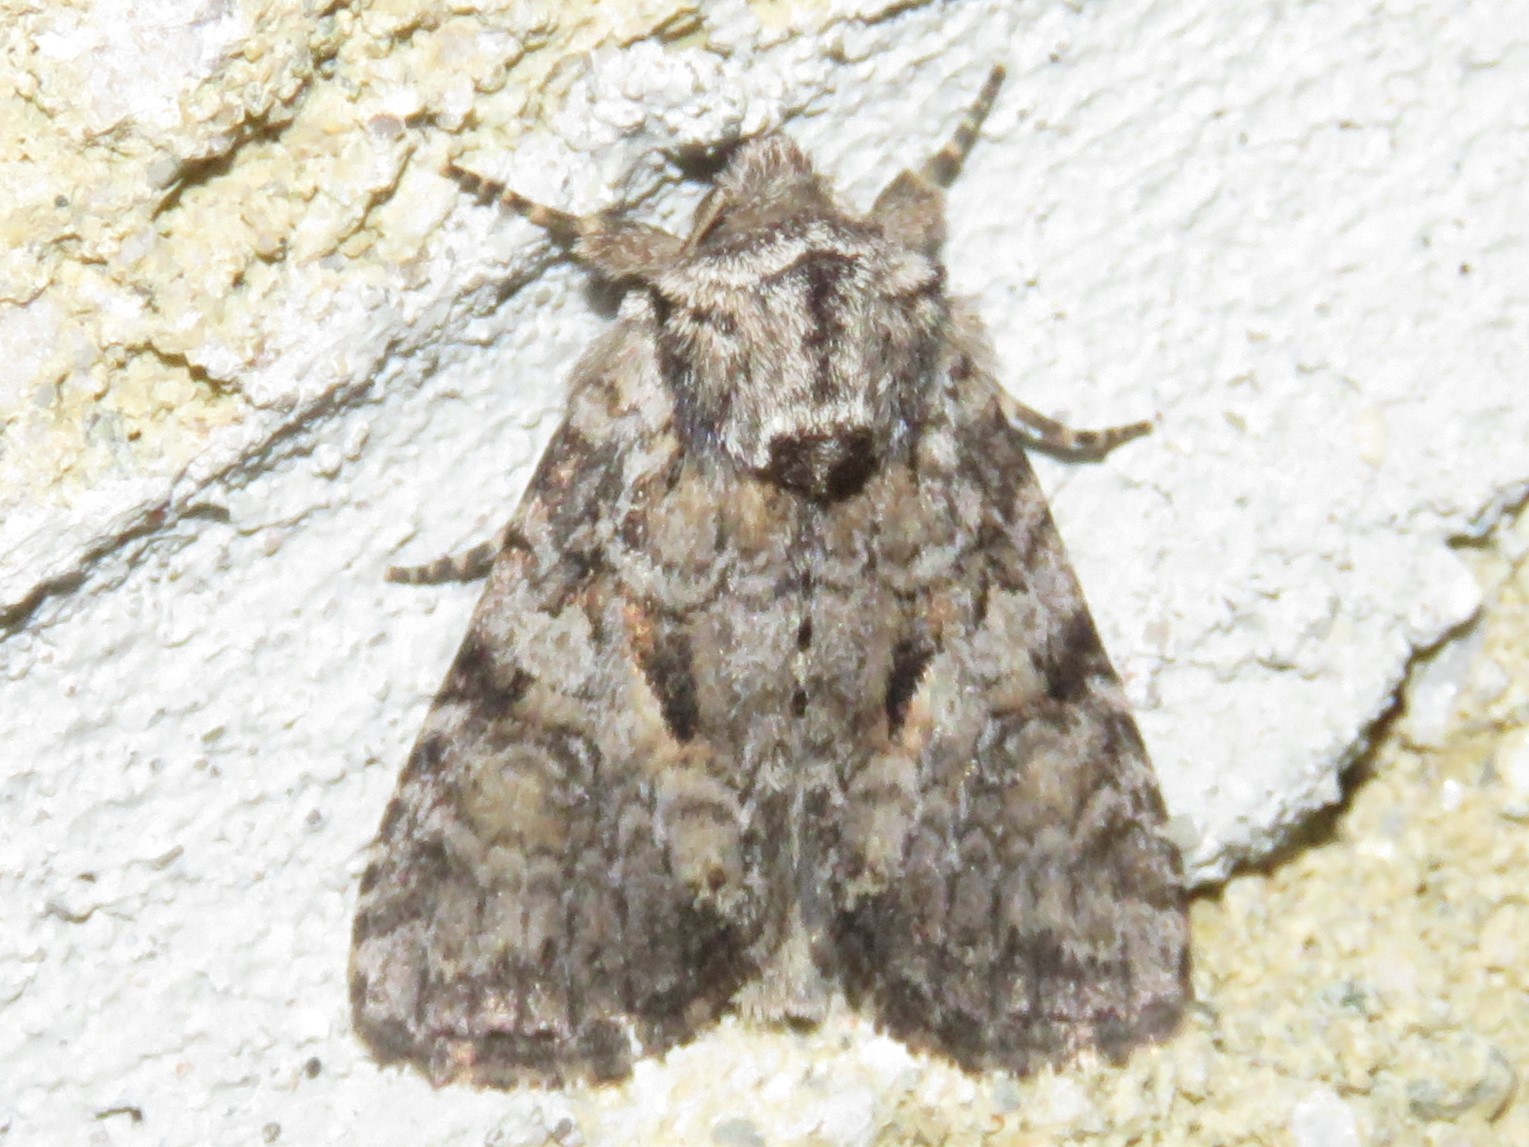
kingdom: Animalia
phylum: Arthropoda
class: Insecta
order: Lepidoptera
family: Noctuidae
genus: Orthodes
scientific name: Orthodes detracta
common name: Disparaged arches moth
